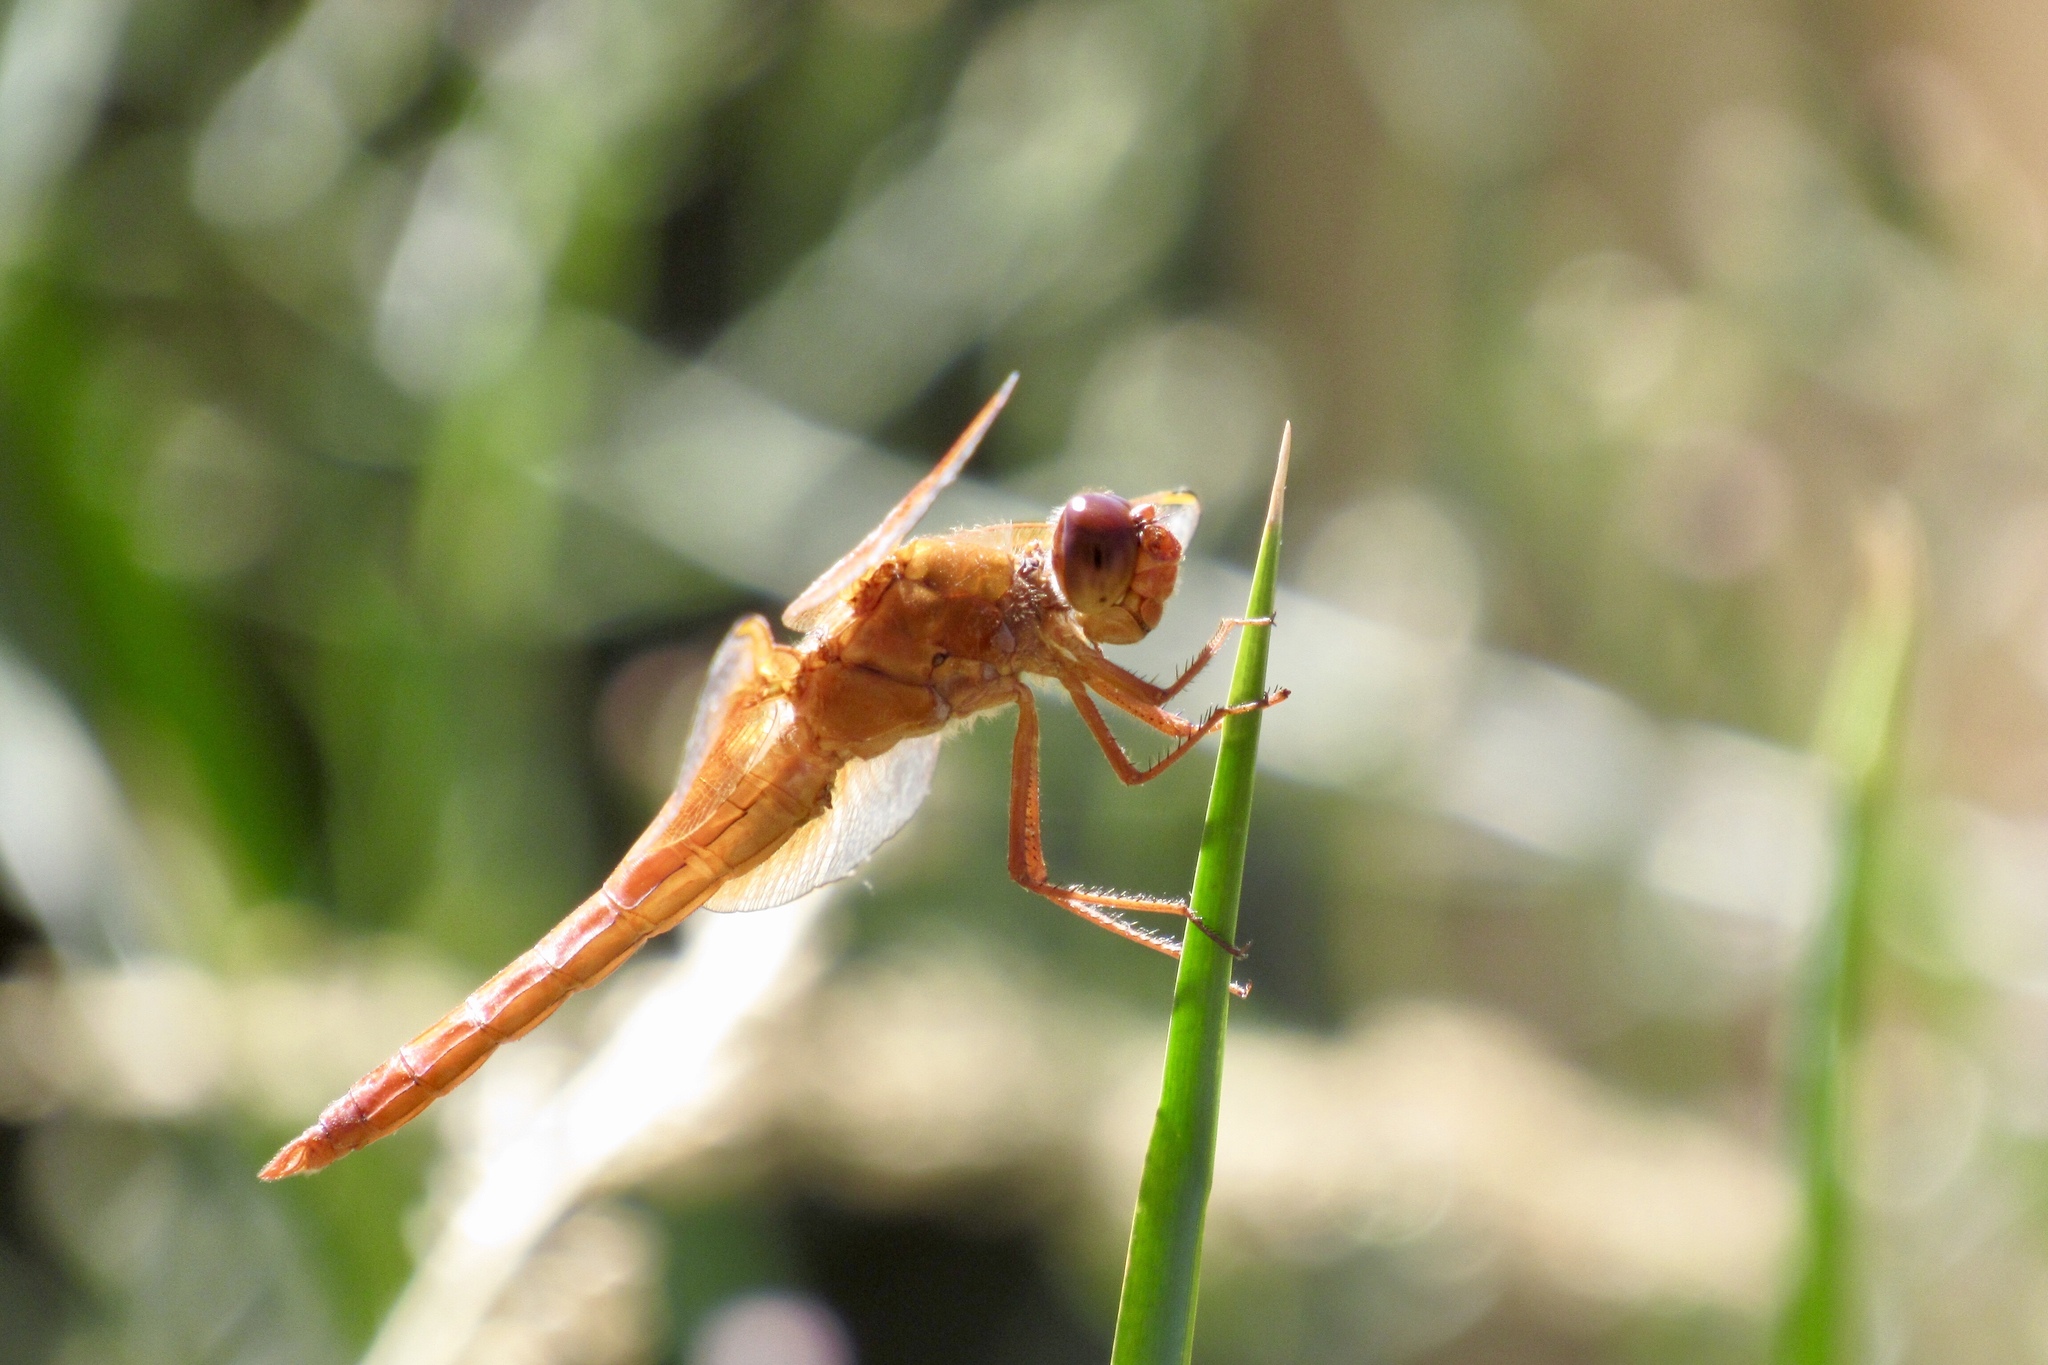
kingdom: Animalia
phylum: Arthropoda
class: Insecta
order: Odonata
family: Libellulidae
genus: Libellula
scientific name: Libellula saturata
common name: Flame skimmer
